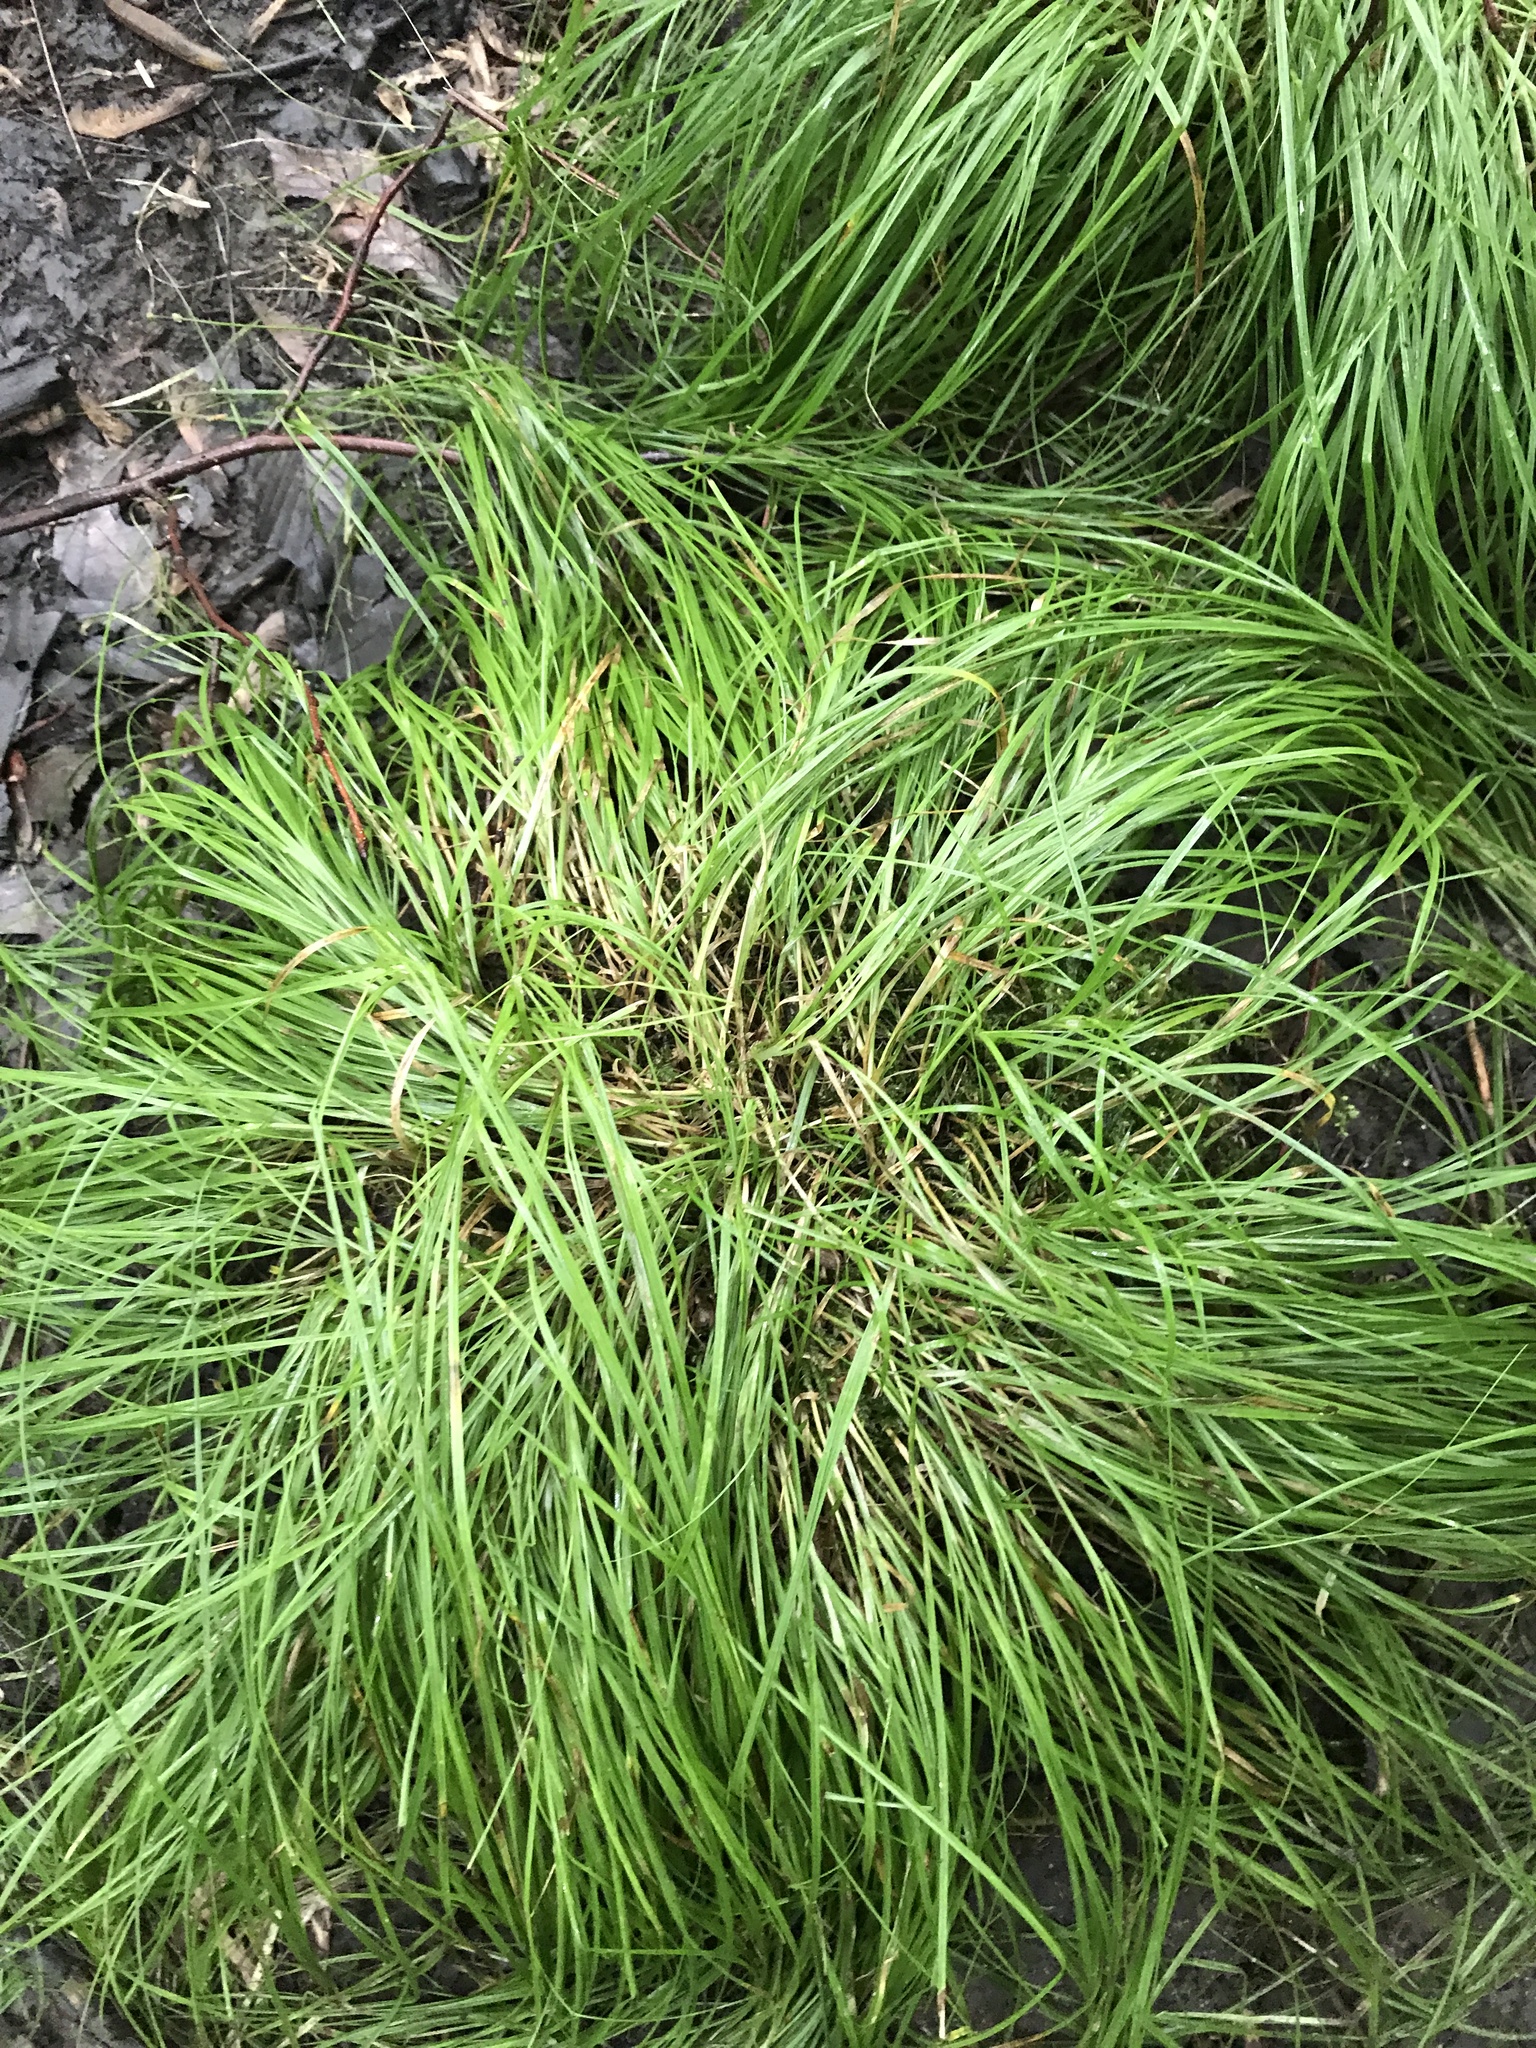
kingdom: Plantae
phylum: Tracheophyta
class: Liliopsida
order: Poales
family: Cyperaceae
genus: Carex
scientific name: Carex bromoides
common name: Brome hummock sedge
